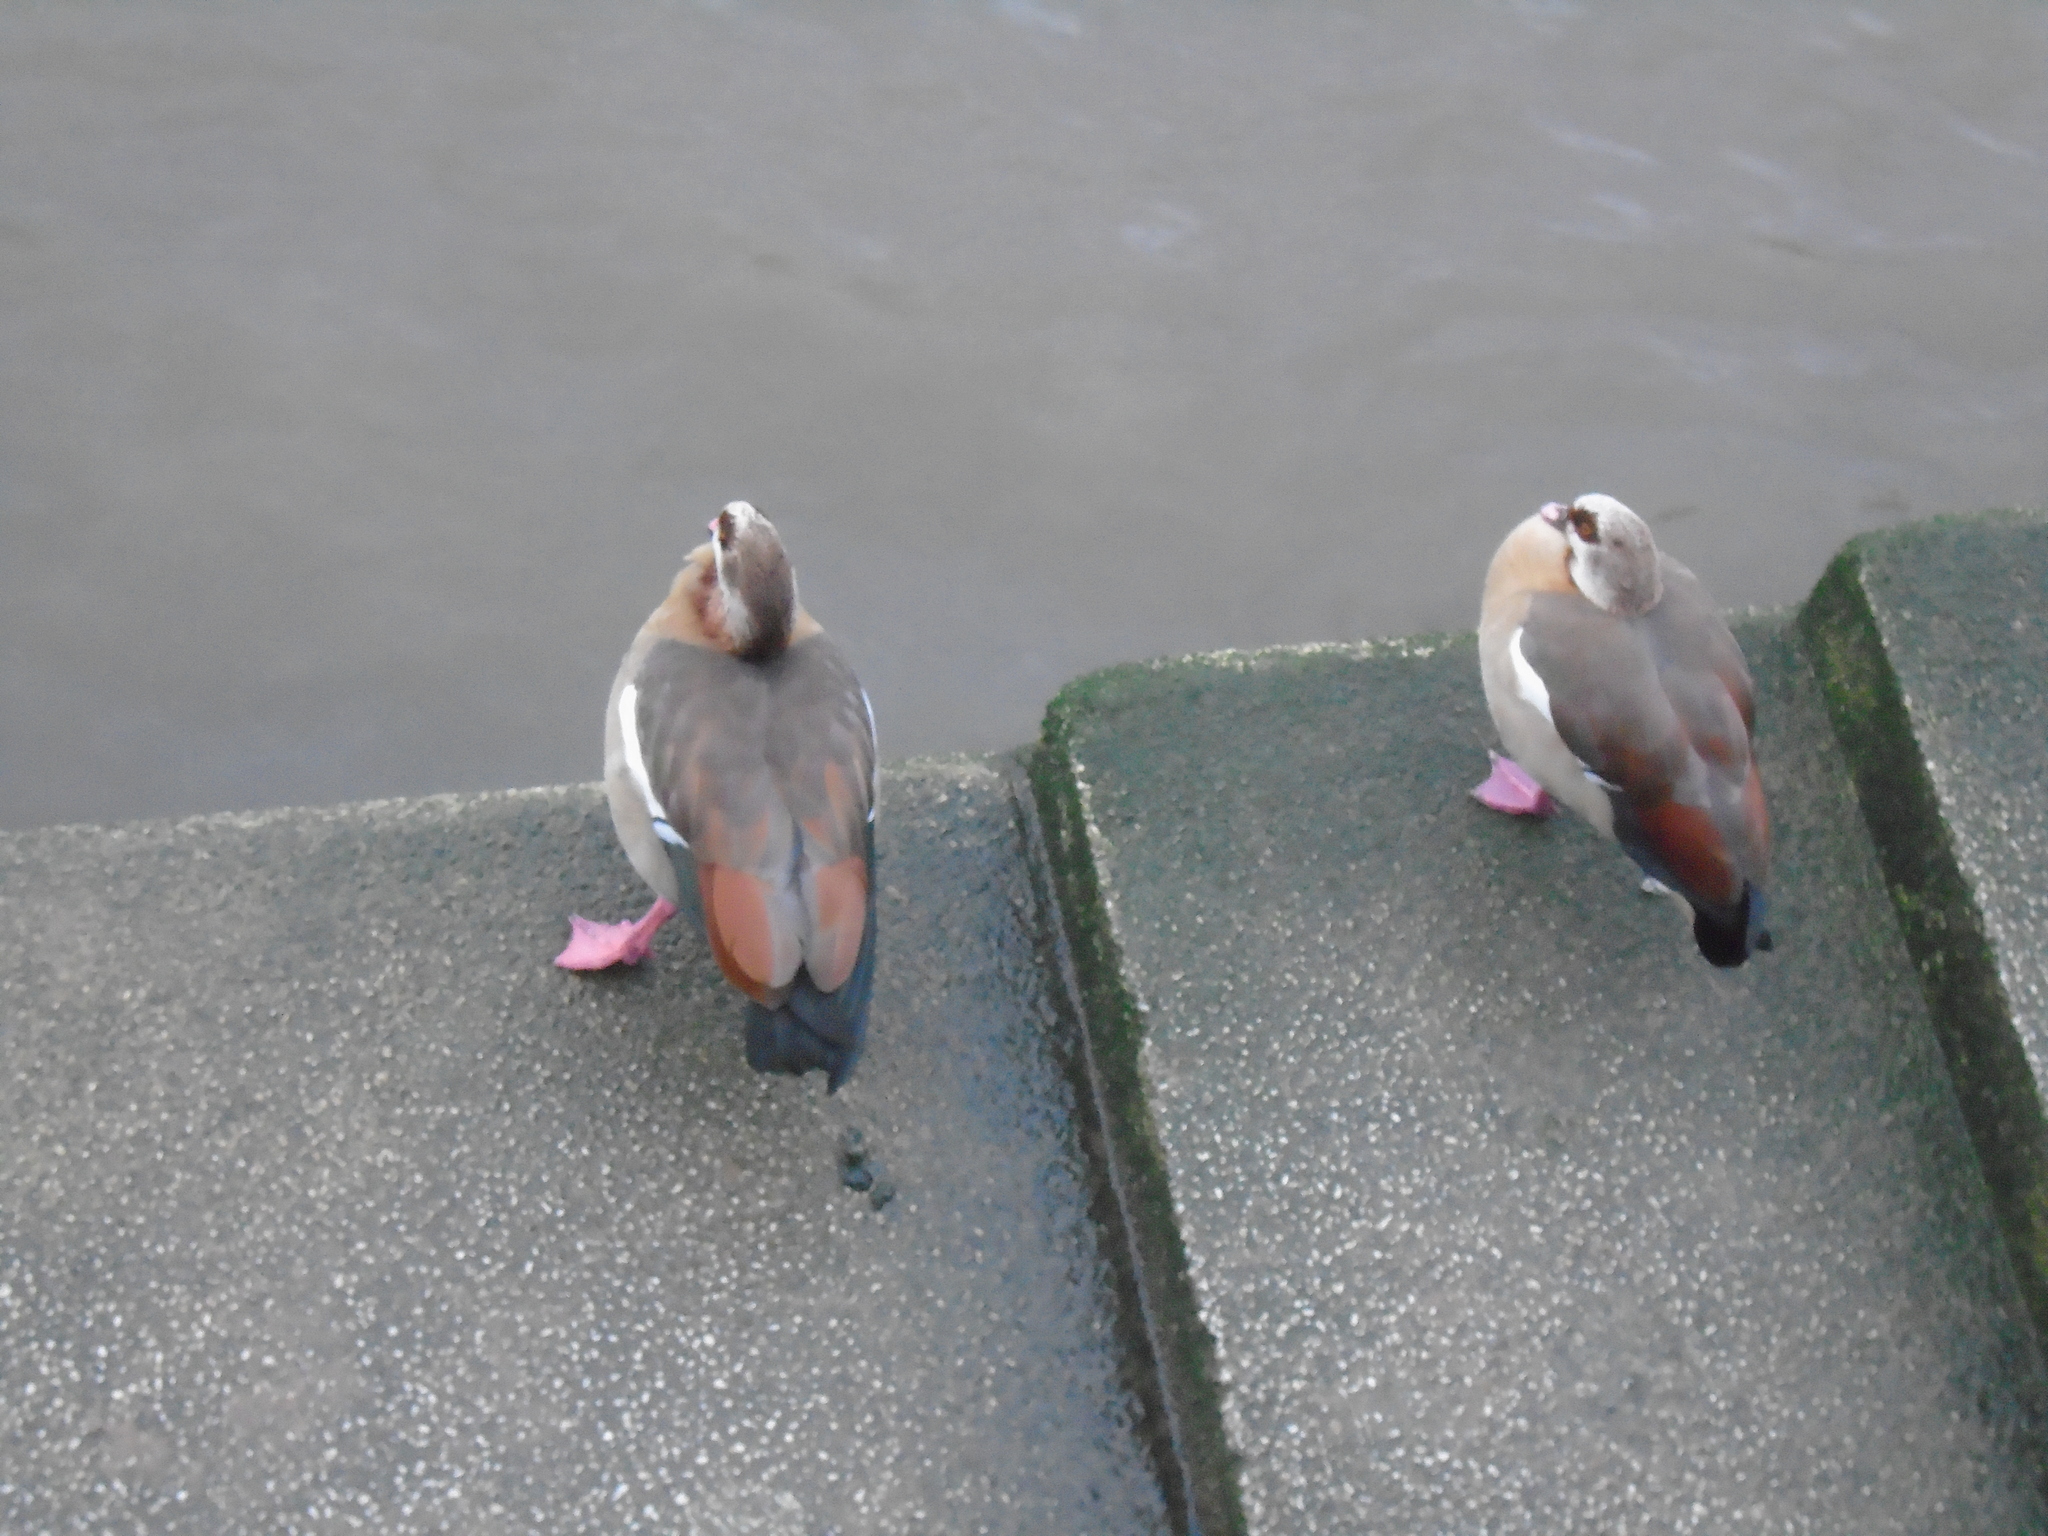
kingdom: Animalia
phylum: Chordata
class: Aves
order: Anseriformes
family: Anatidae
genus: Alopochen
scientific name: Alopochen aegyptiaca
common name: Egyptian goose
